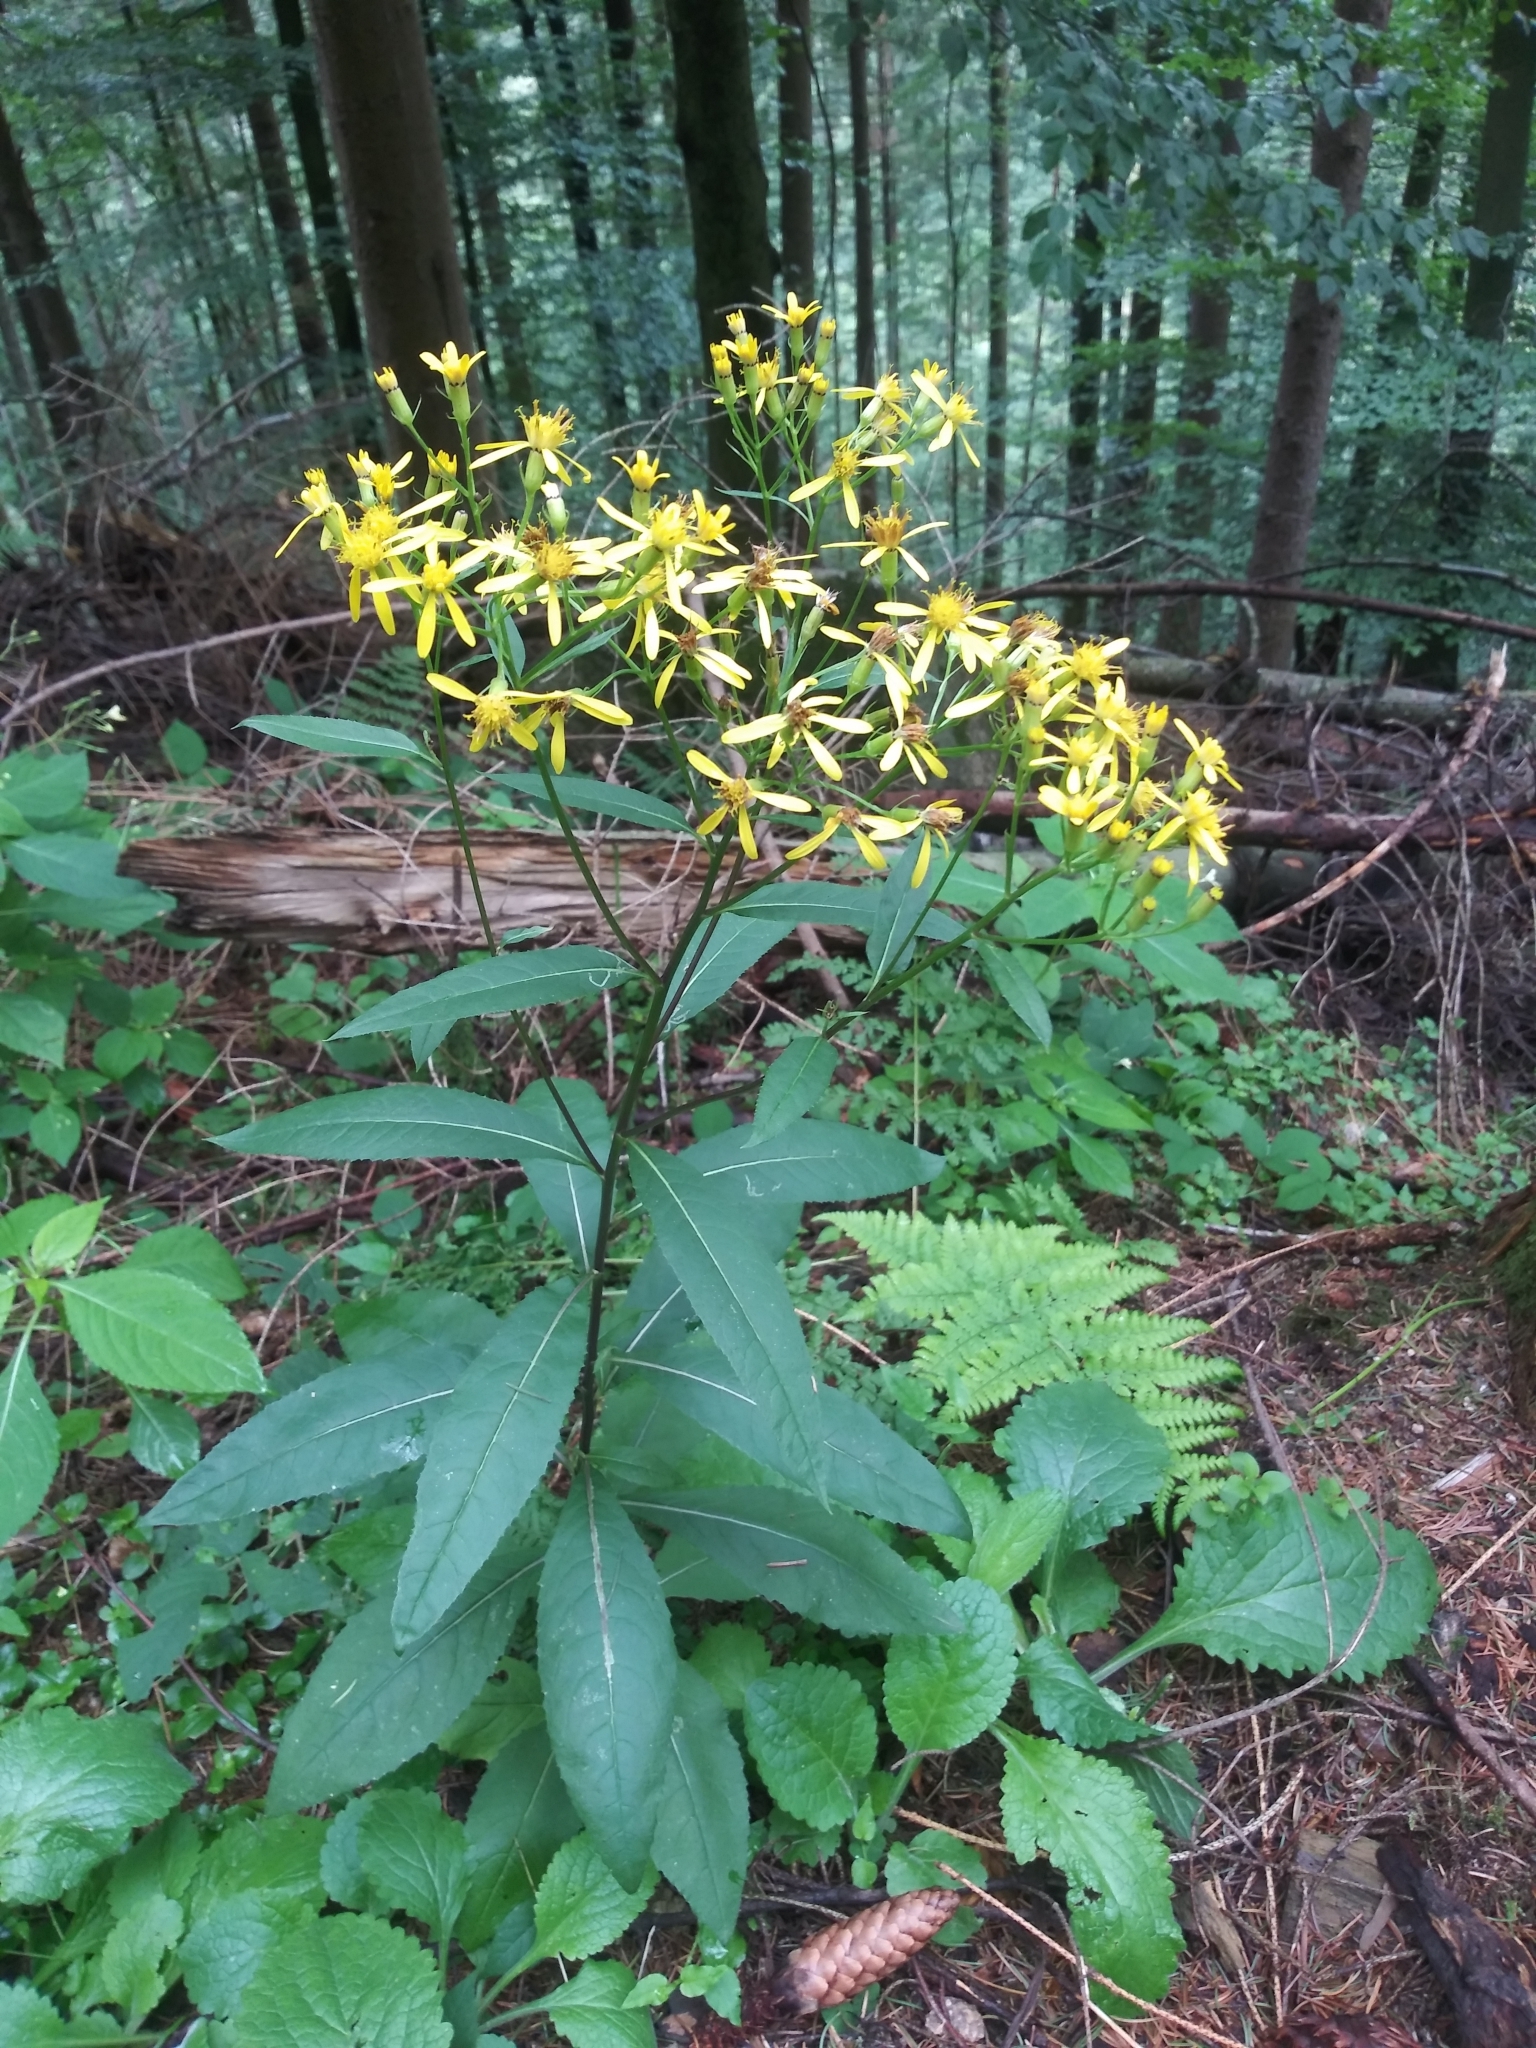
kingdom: Plantae
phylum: Tracheophyta
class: Magnoliopsida
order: Asterales
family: Asteraceae
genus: Senecio
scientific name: Senecio ovatus
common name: Wood ragwort
